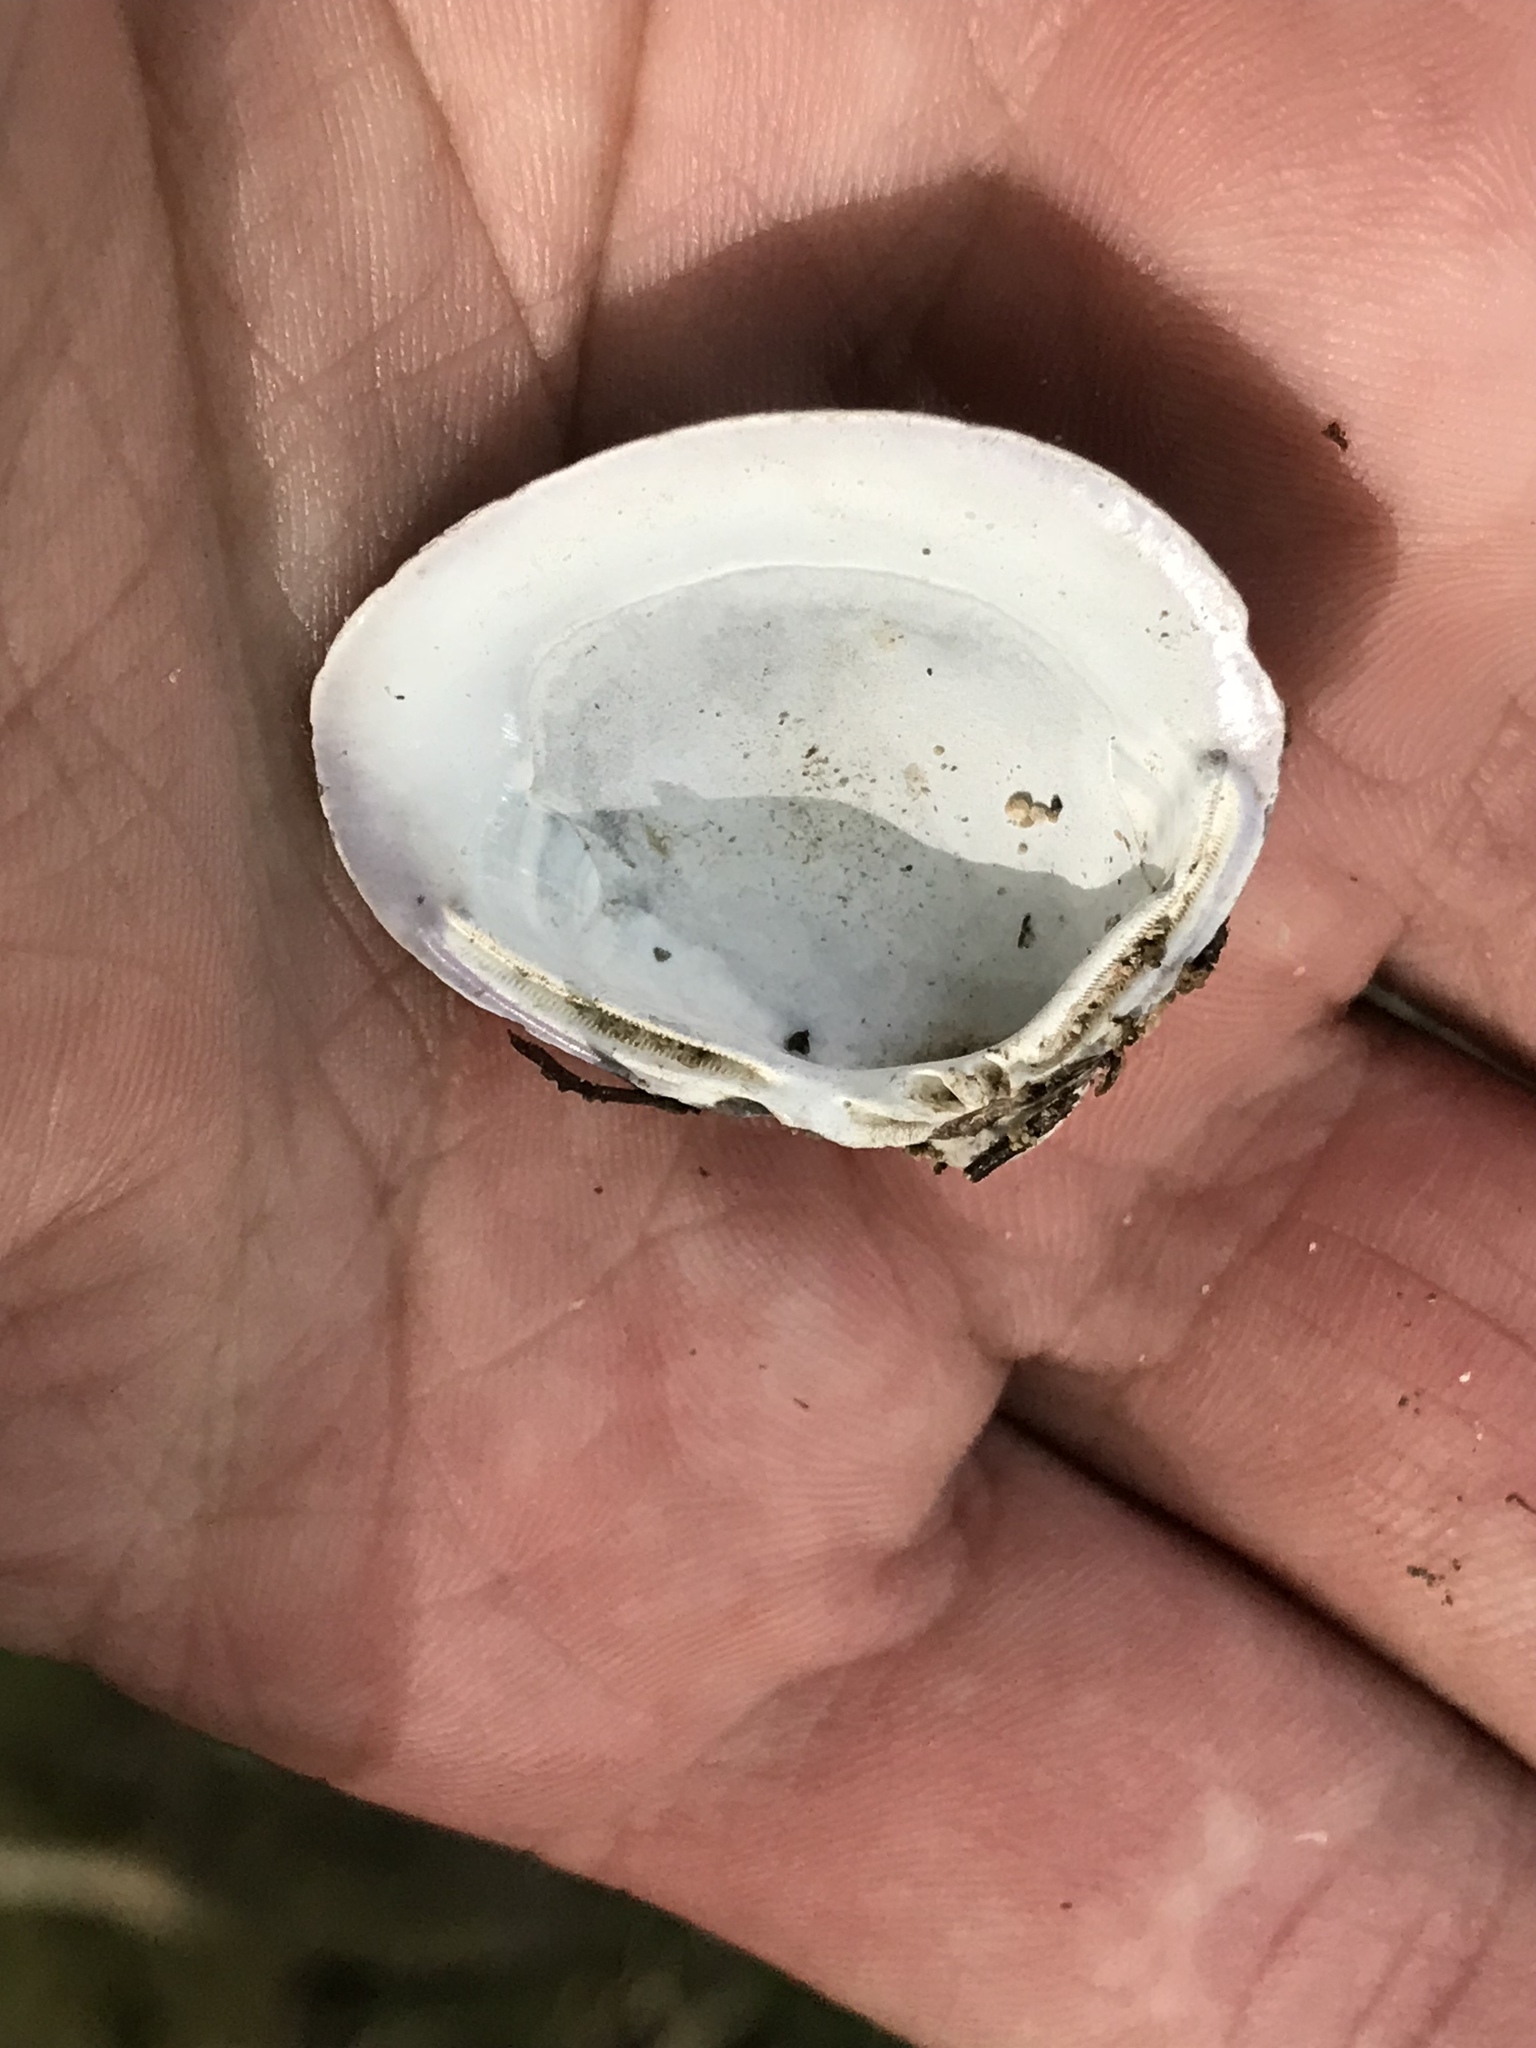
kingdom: Animalia
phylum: Mollusca
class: Bivalvia
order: Venerida
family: Cyrenidae
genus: Corbicula
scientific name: Corbicula fluminea
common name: Asian clam
